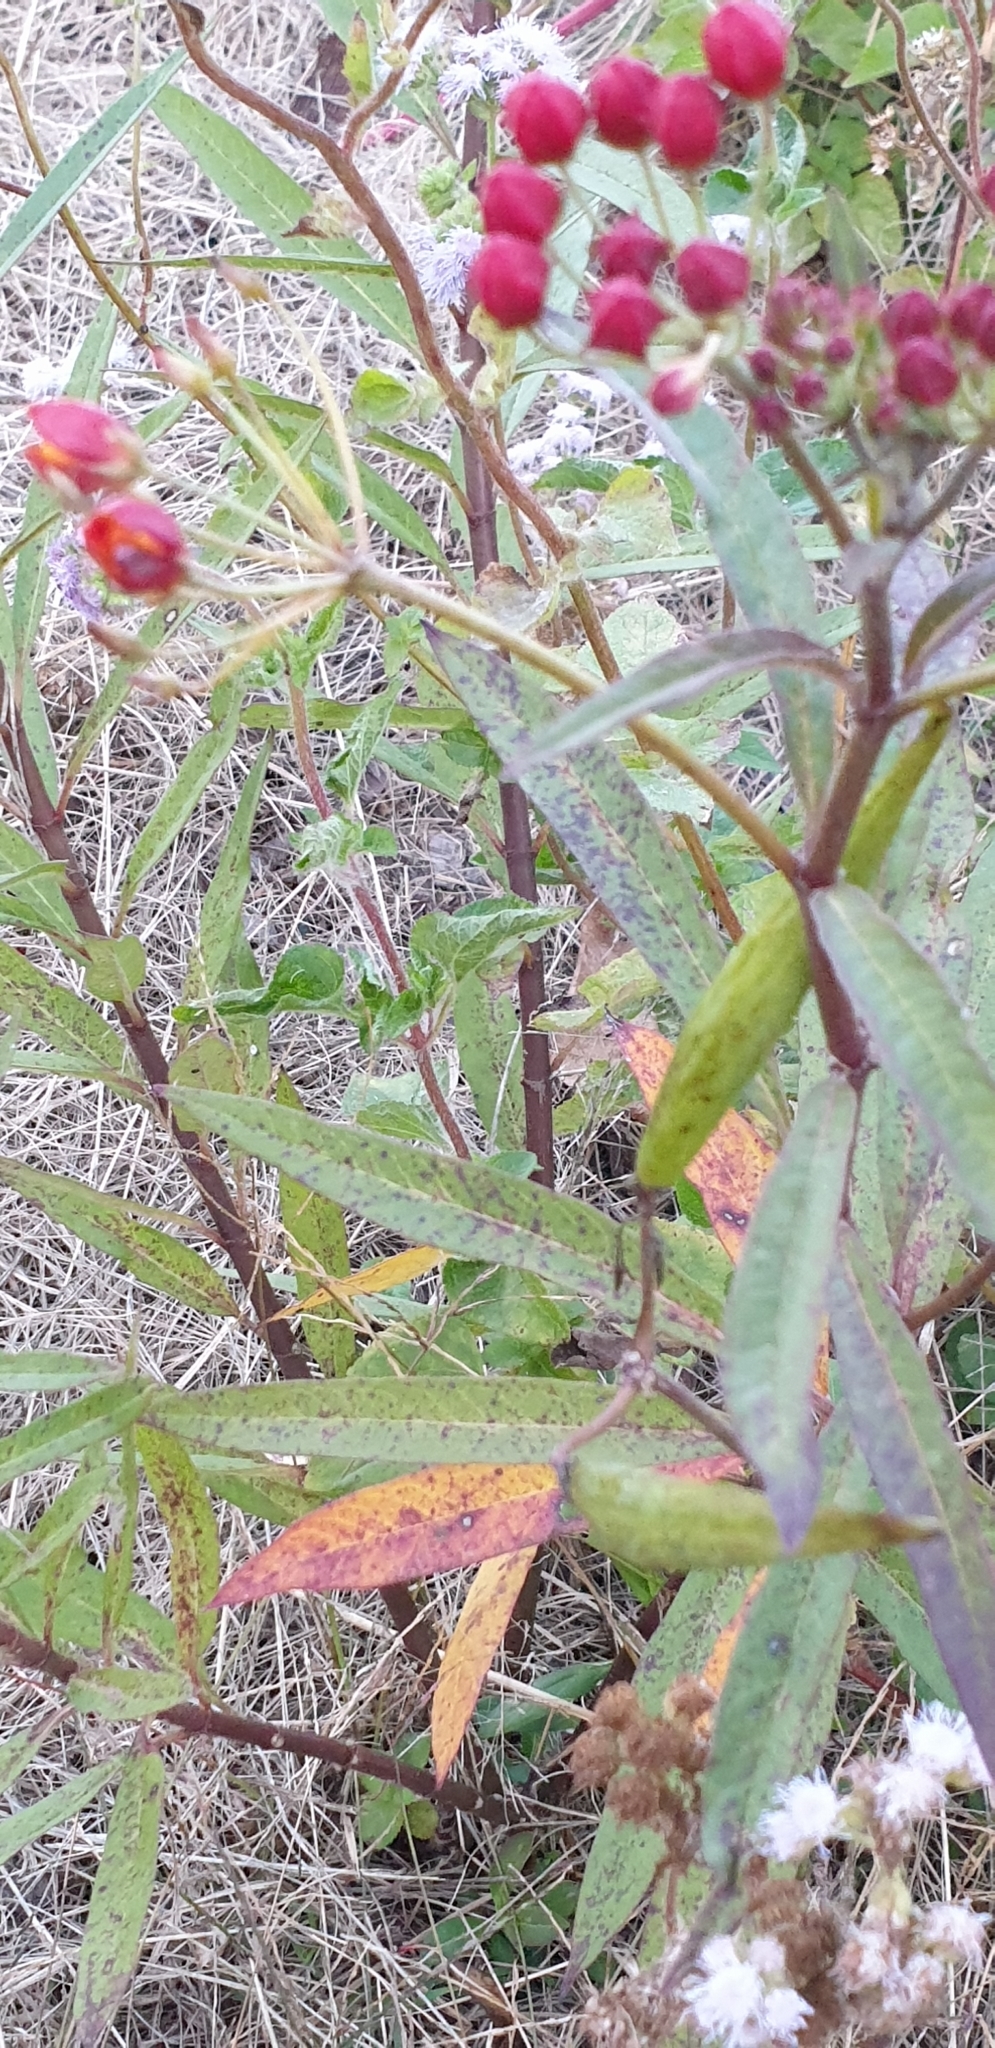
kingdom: Plantae
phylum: Tracheophyta
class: Magnoliopsida
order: Gentianales
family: Apocynaceae
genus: Asclepias
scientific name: Asclepias curassavica
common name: Bloodflower
